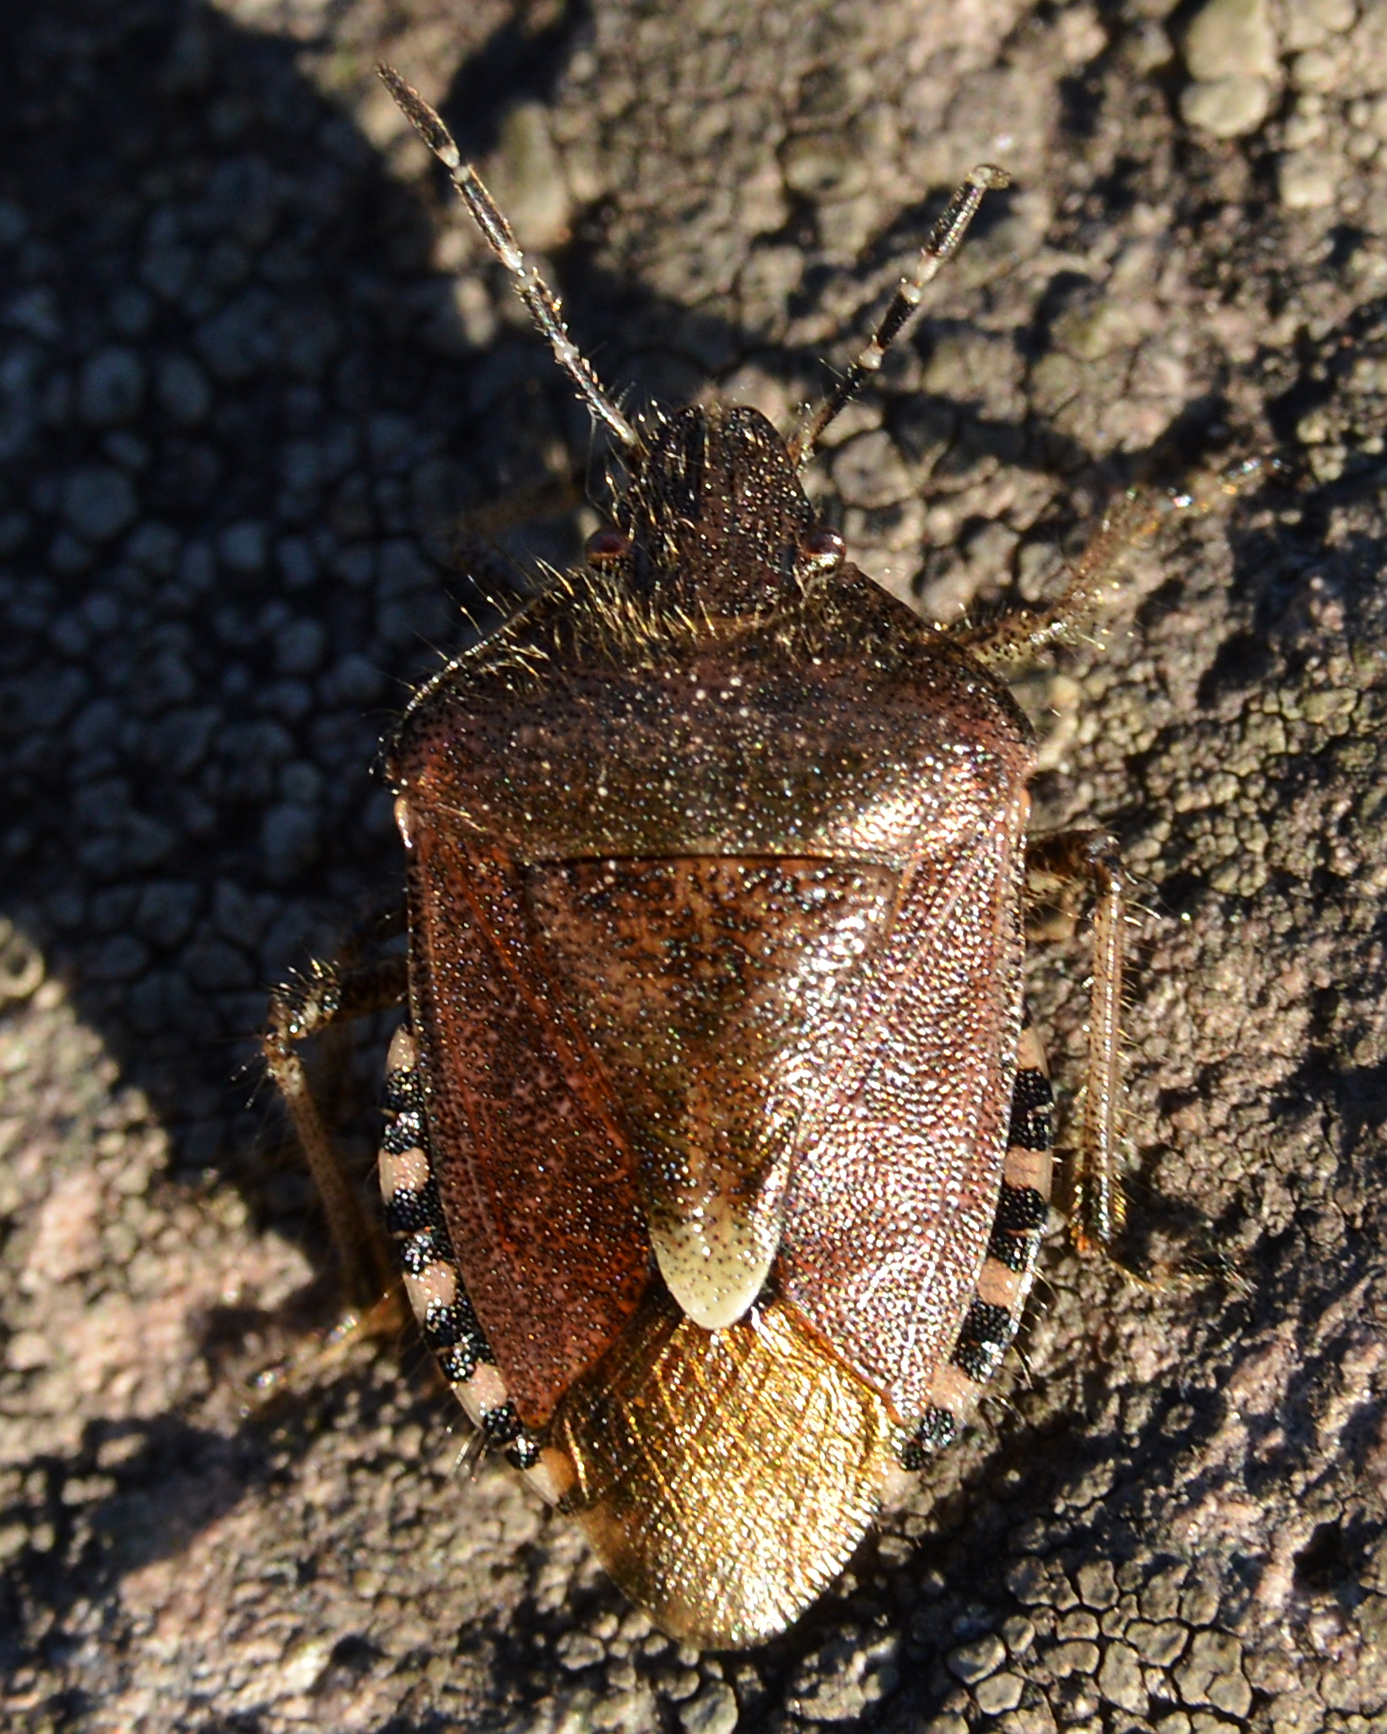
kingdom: Animalia
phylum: Arthropoda
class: Insecta
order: Hemiptera
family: Pentatomidae
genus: Dolycoris
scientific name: Dolycoris baccarum
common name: Sloe bug
